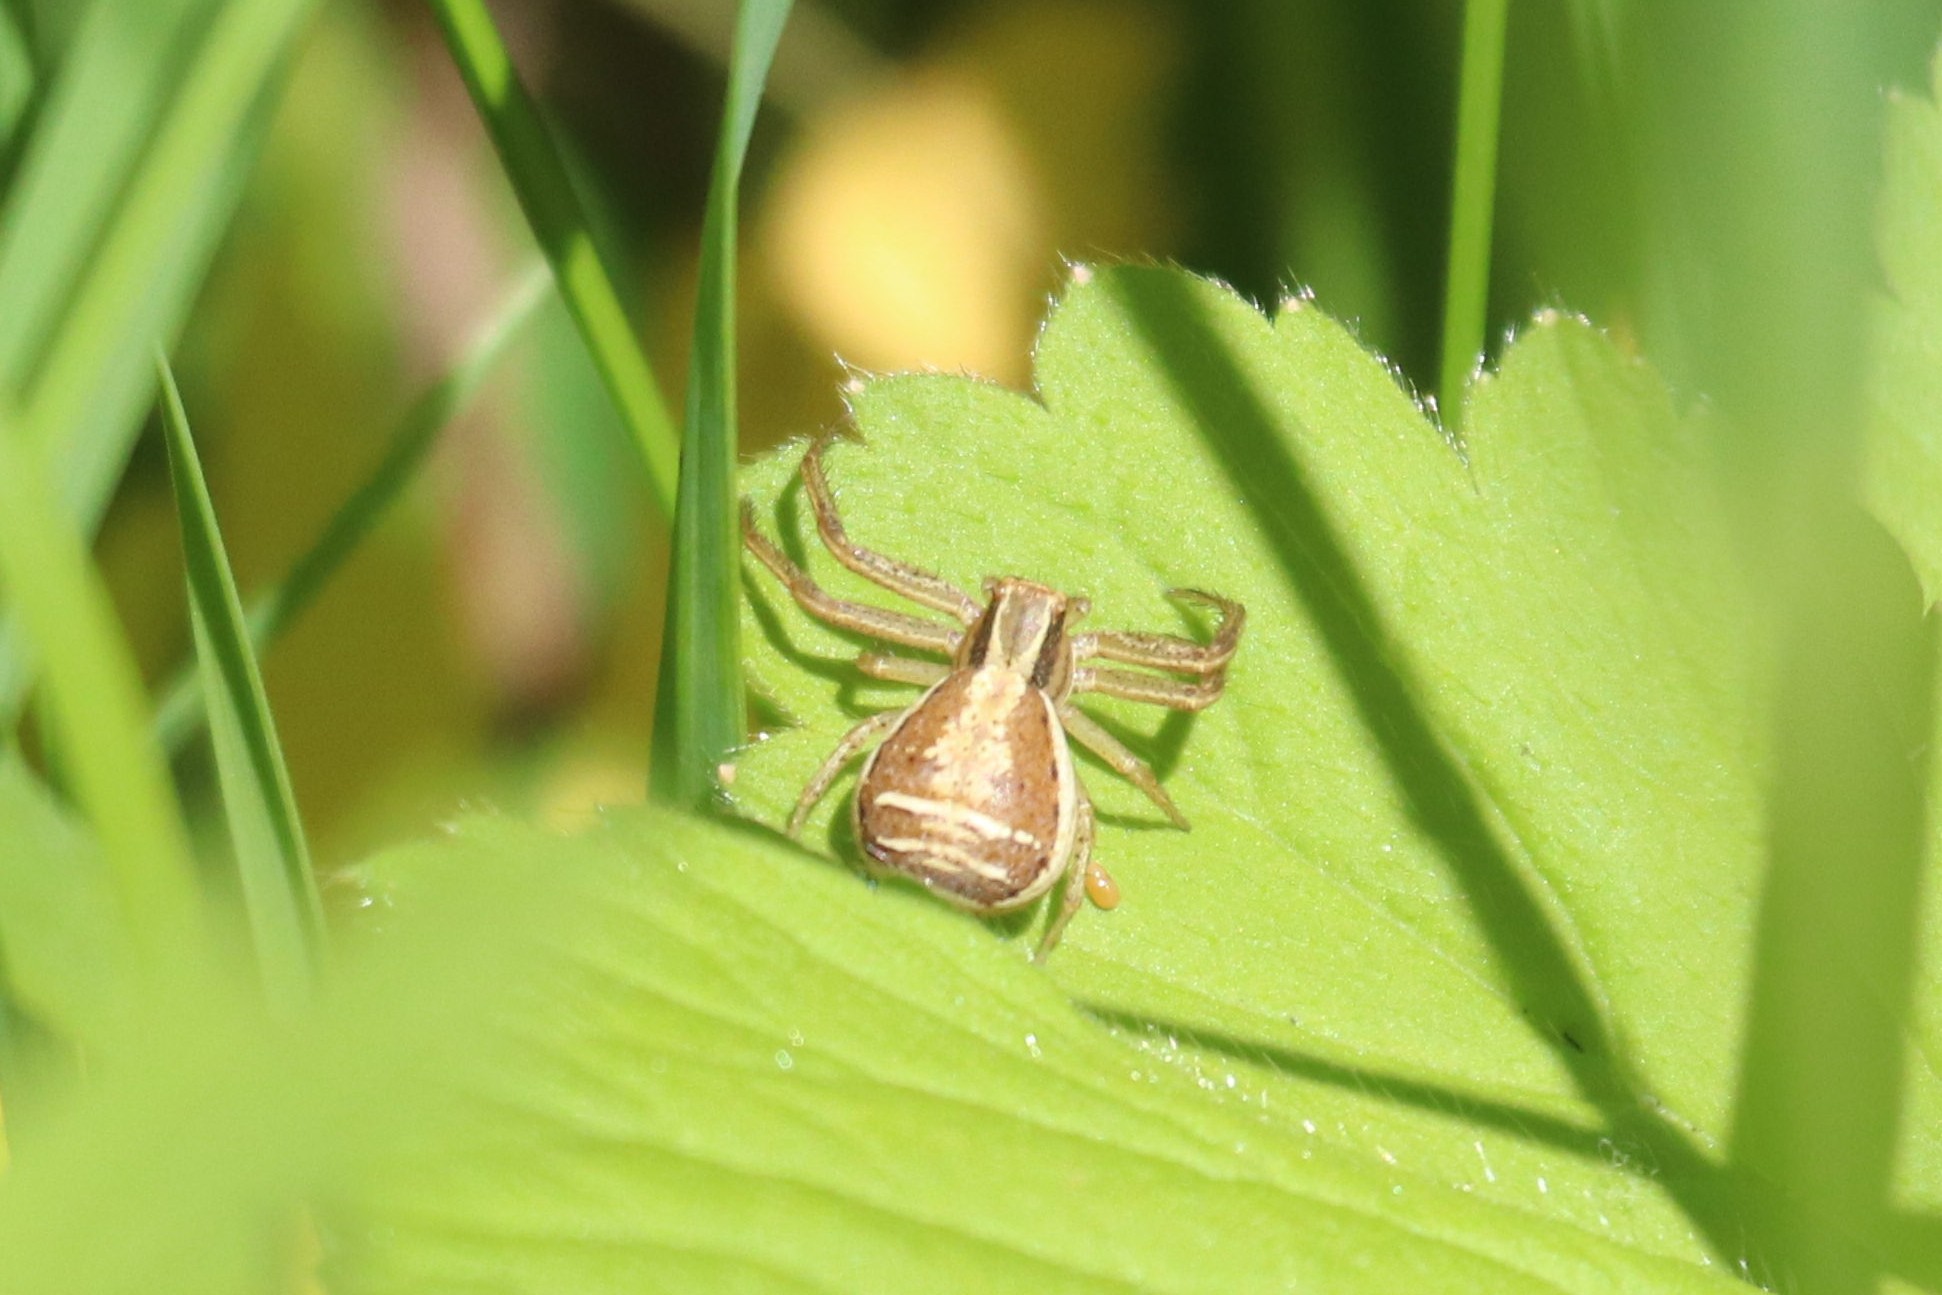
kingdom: Animalia
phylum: Arthropoda
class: Arachnida
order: Araneae
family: Thomisidae
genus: Xysticus
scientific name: Xysticus ulmi
